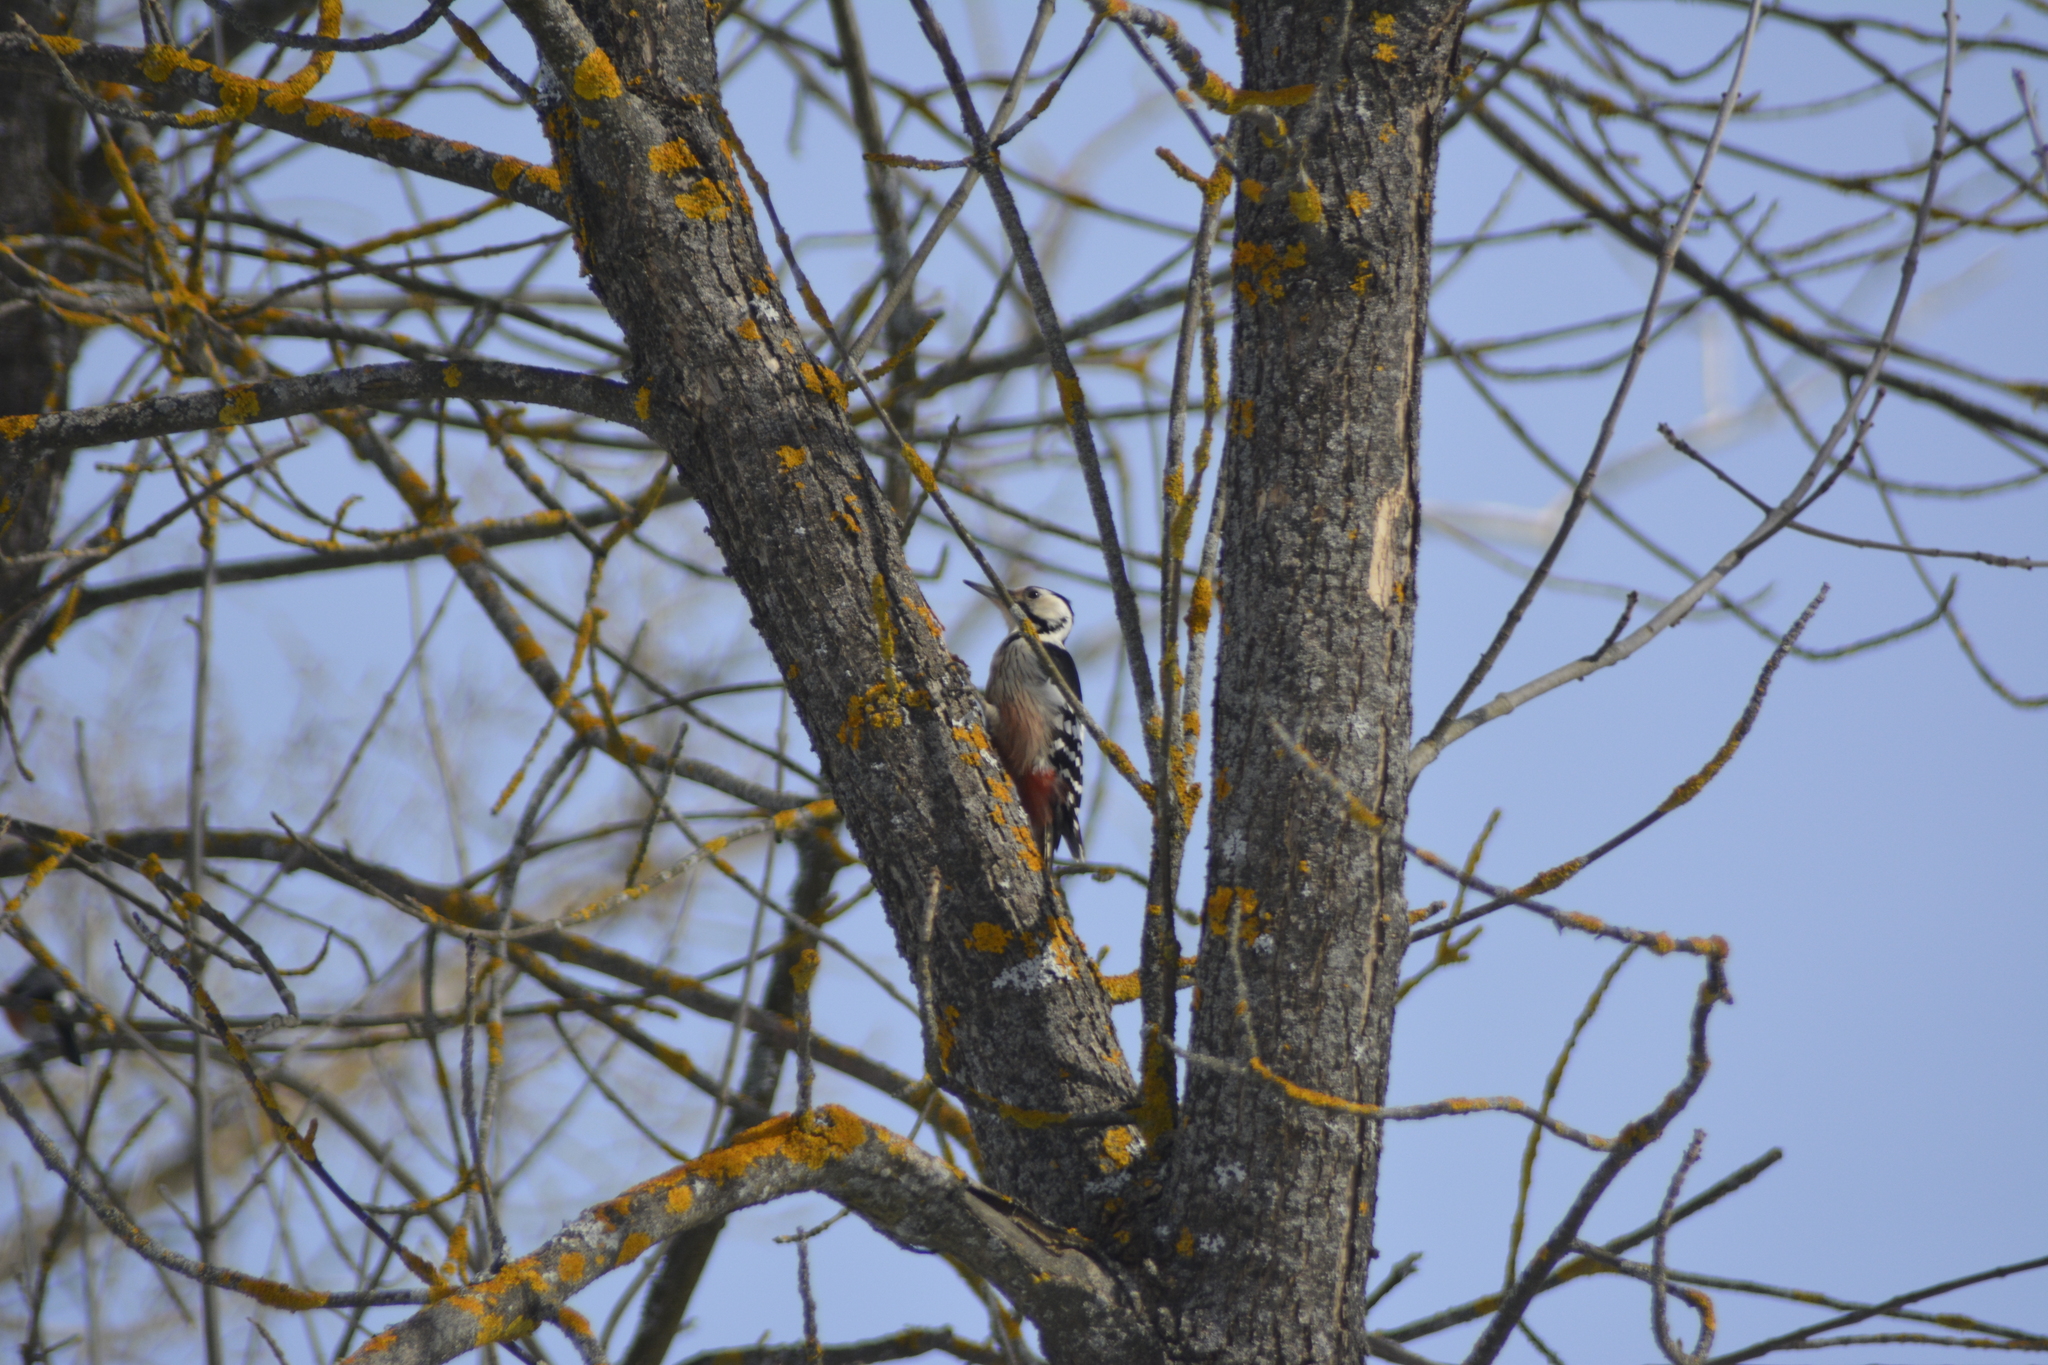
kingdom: Animalia
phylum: Chordata
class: Aves
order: Piciformes
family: Picidae
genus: Dendrocopos
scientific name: Dendrocopos leucotos
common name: White-backed woodpecker
